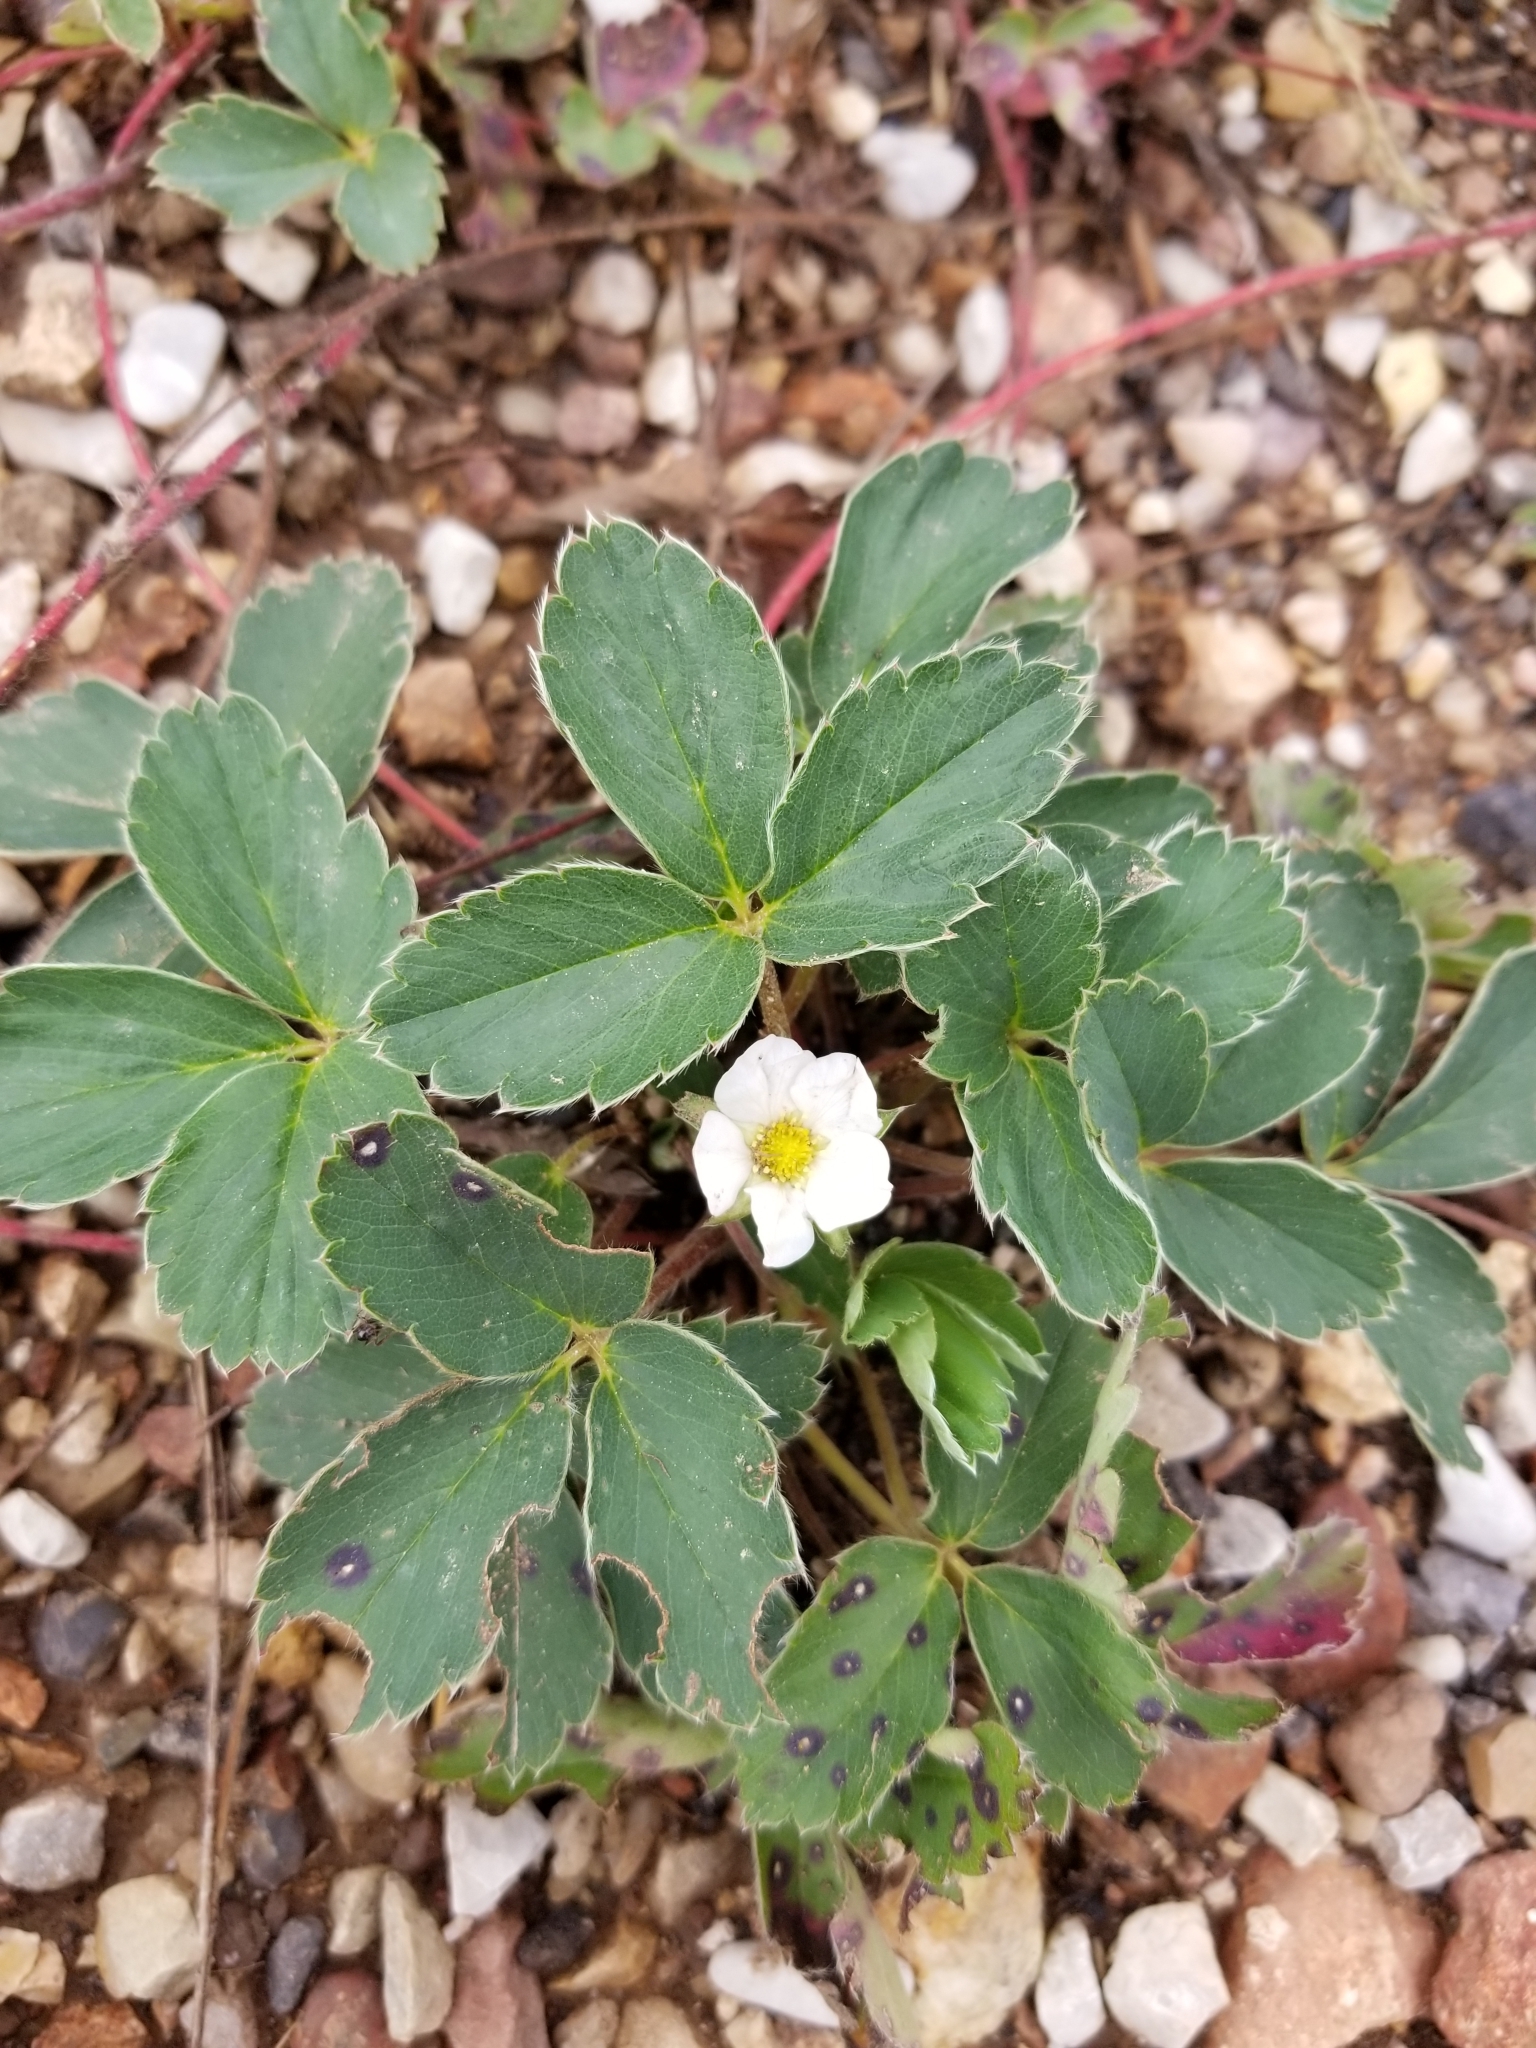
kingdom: Plantae
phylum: Tracheophyta
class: Magnoliopsida
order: Rosales
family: Rosaceae
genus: Fragaria
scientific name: Fragaria virginiana
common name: Thickleaved wild strawberry
